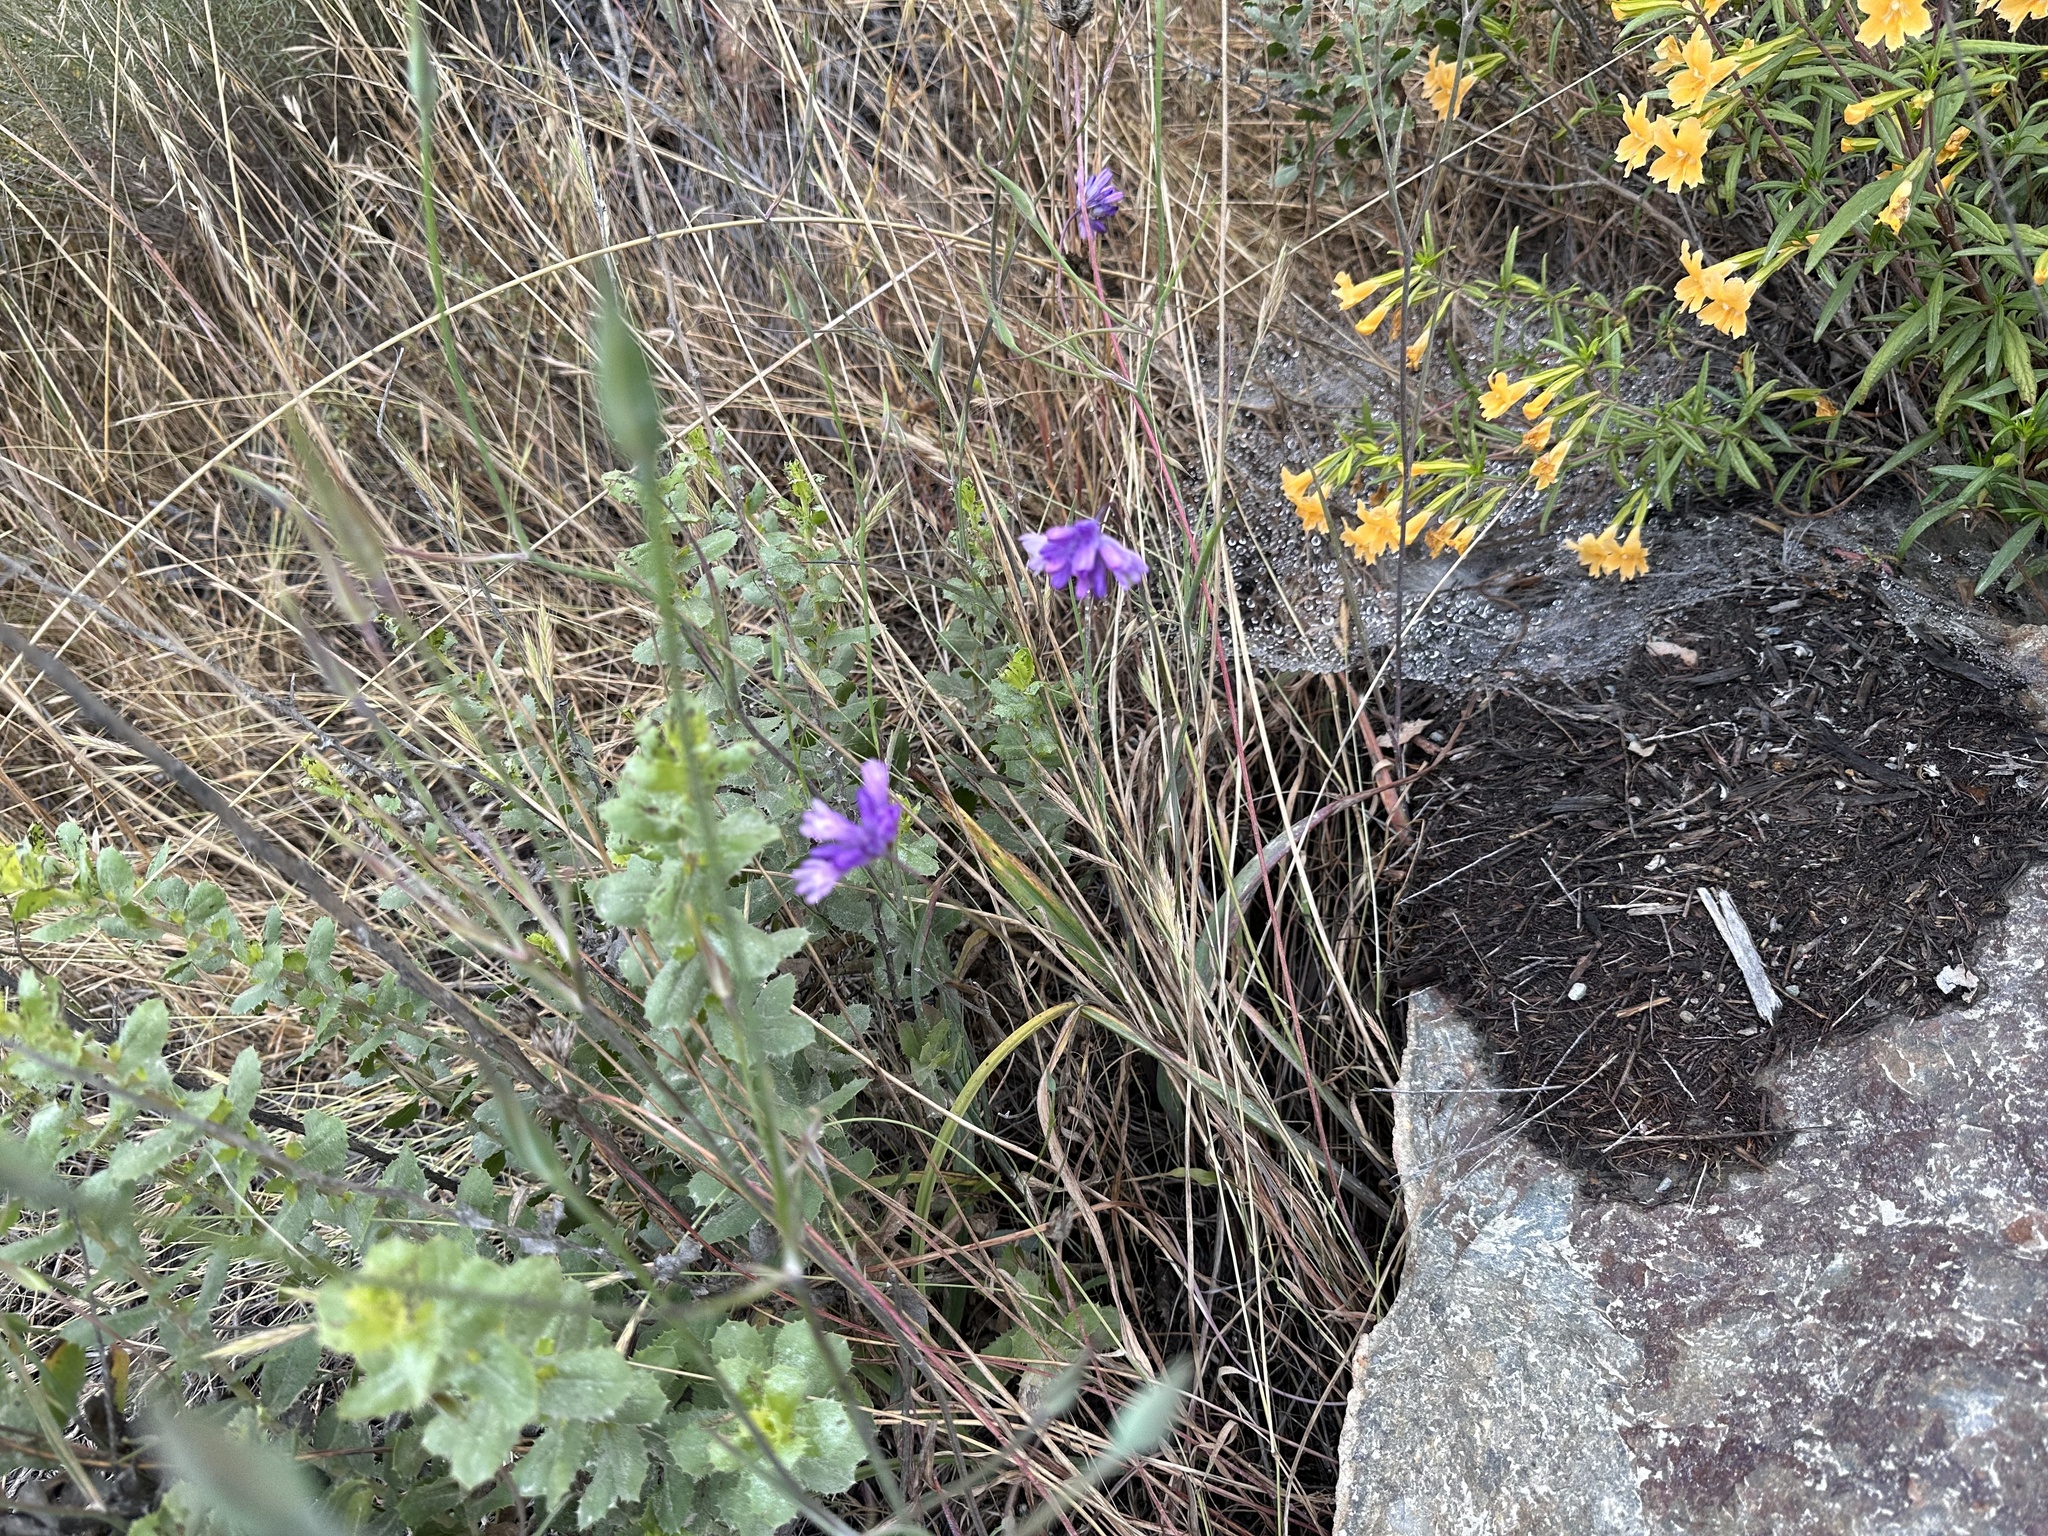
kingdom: Plantae
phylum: Tracheophyta
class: Liliopsida
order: Asparagales
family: Asparagaceae
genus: Dipterostemon
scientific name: Dipterostemon capitatus
